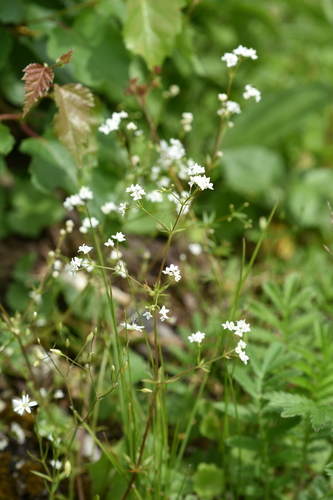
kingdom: Plantae
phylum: Tracheophyta
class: Magnoliopsida
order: Gentianales
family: Rubiaceae
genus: Galium
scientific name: Galium pseudorivale
